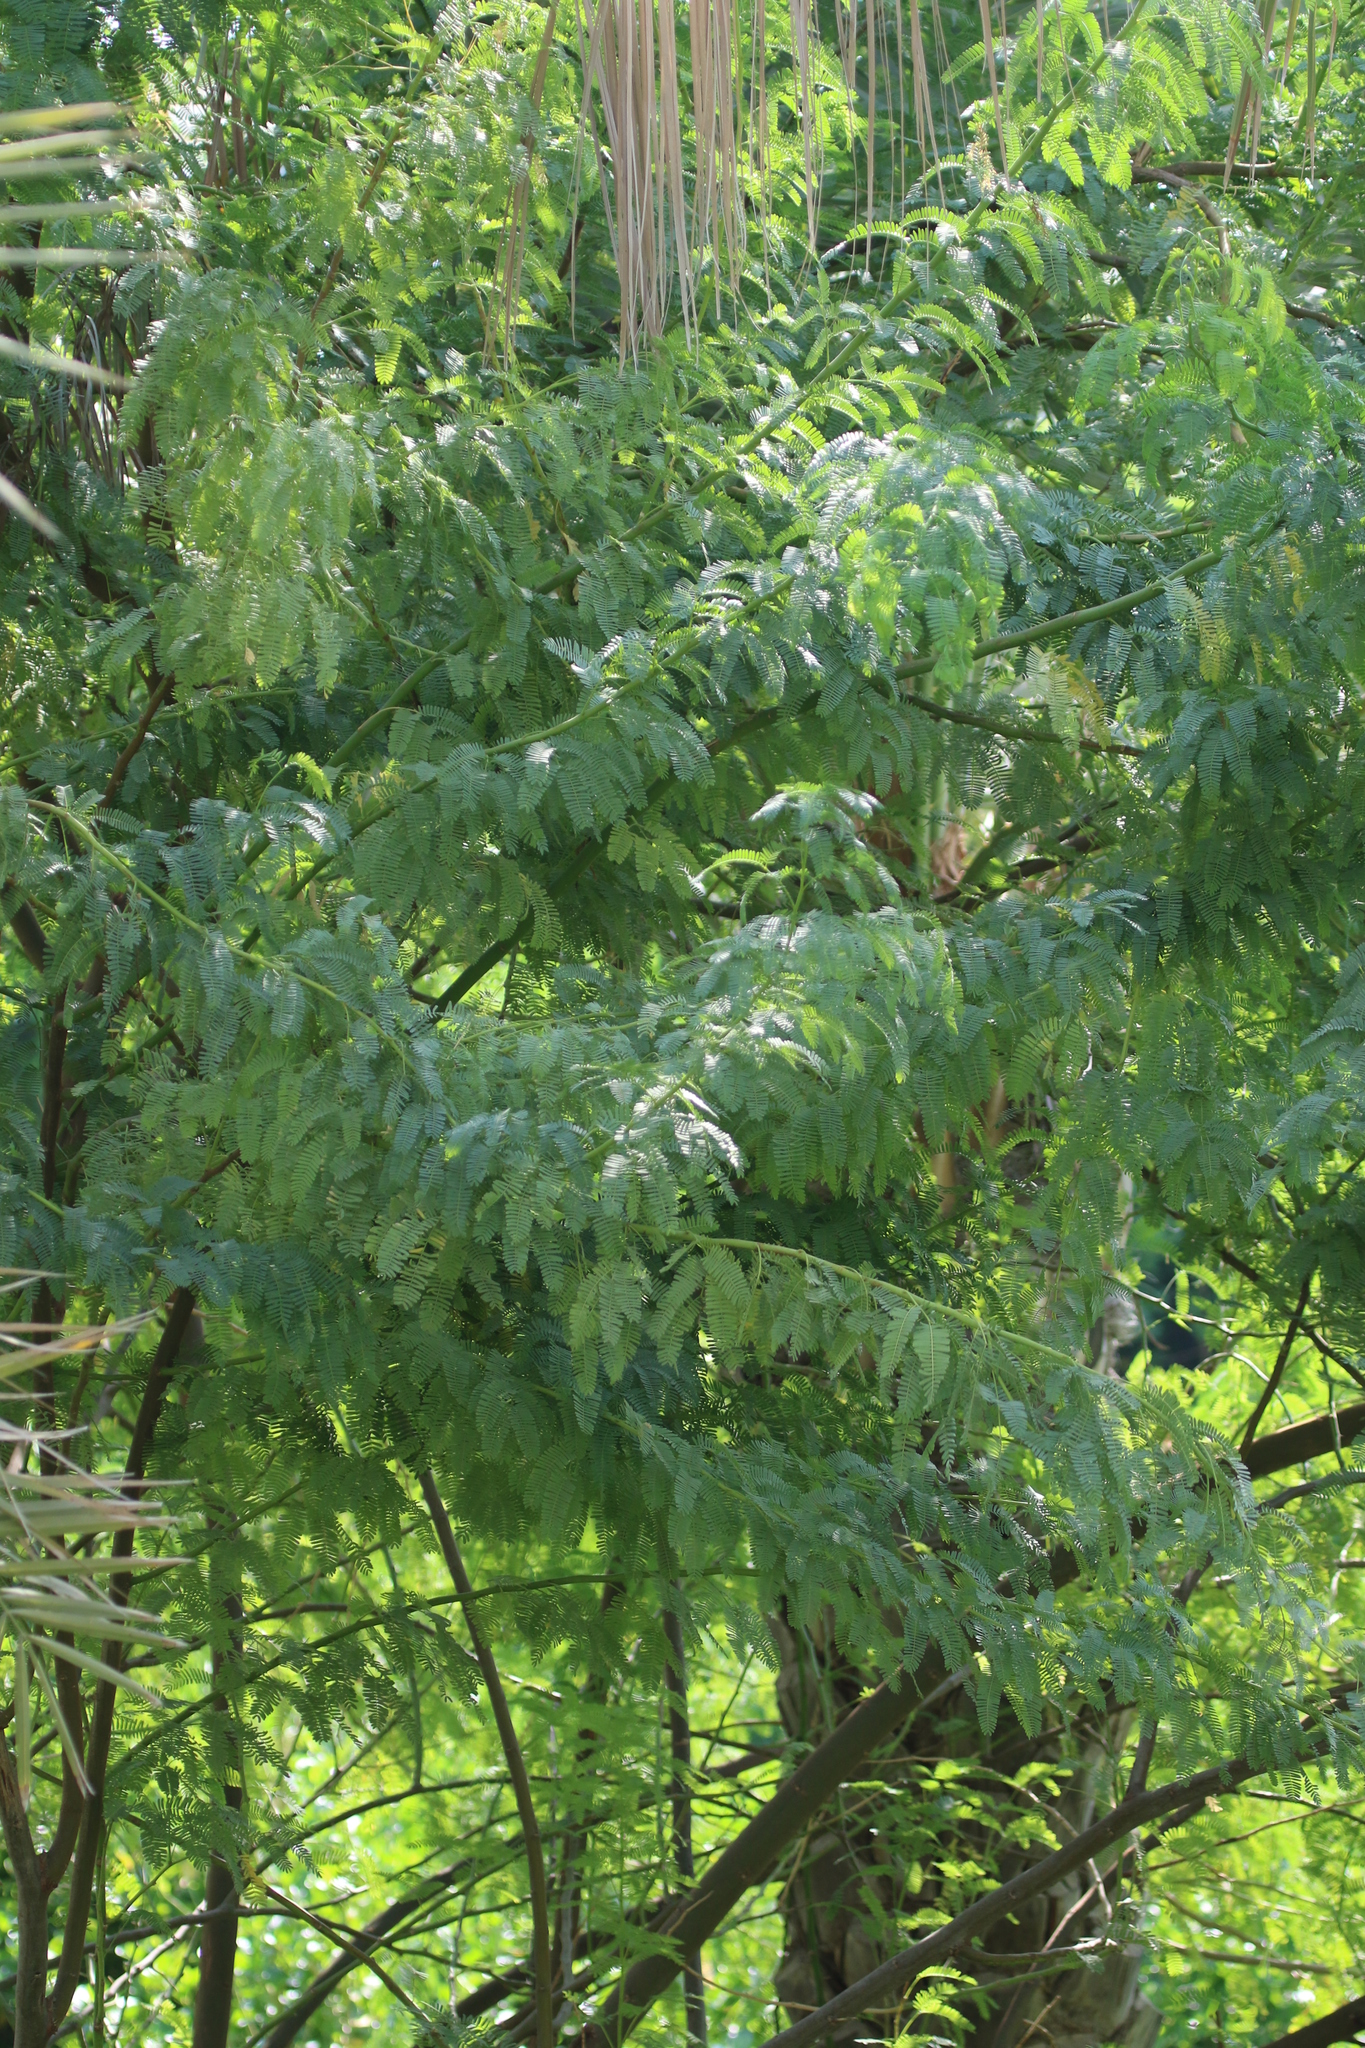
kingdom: Plantae
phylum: Tracheophyta
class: Magnoliopsida
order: Fabales
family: Fabaceae
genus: Prosopis
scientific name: Prosopis juliflora
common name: Mesquite
